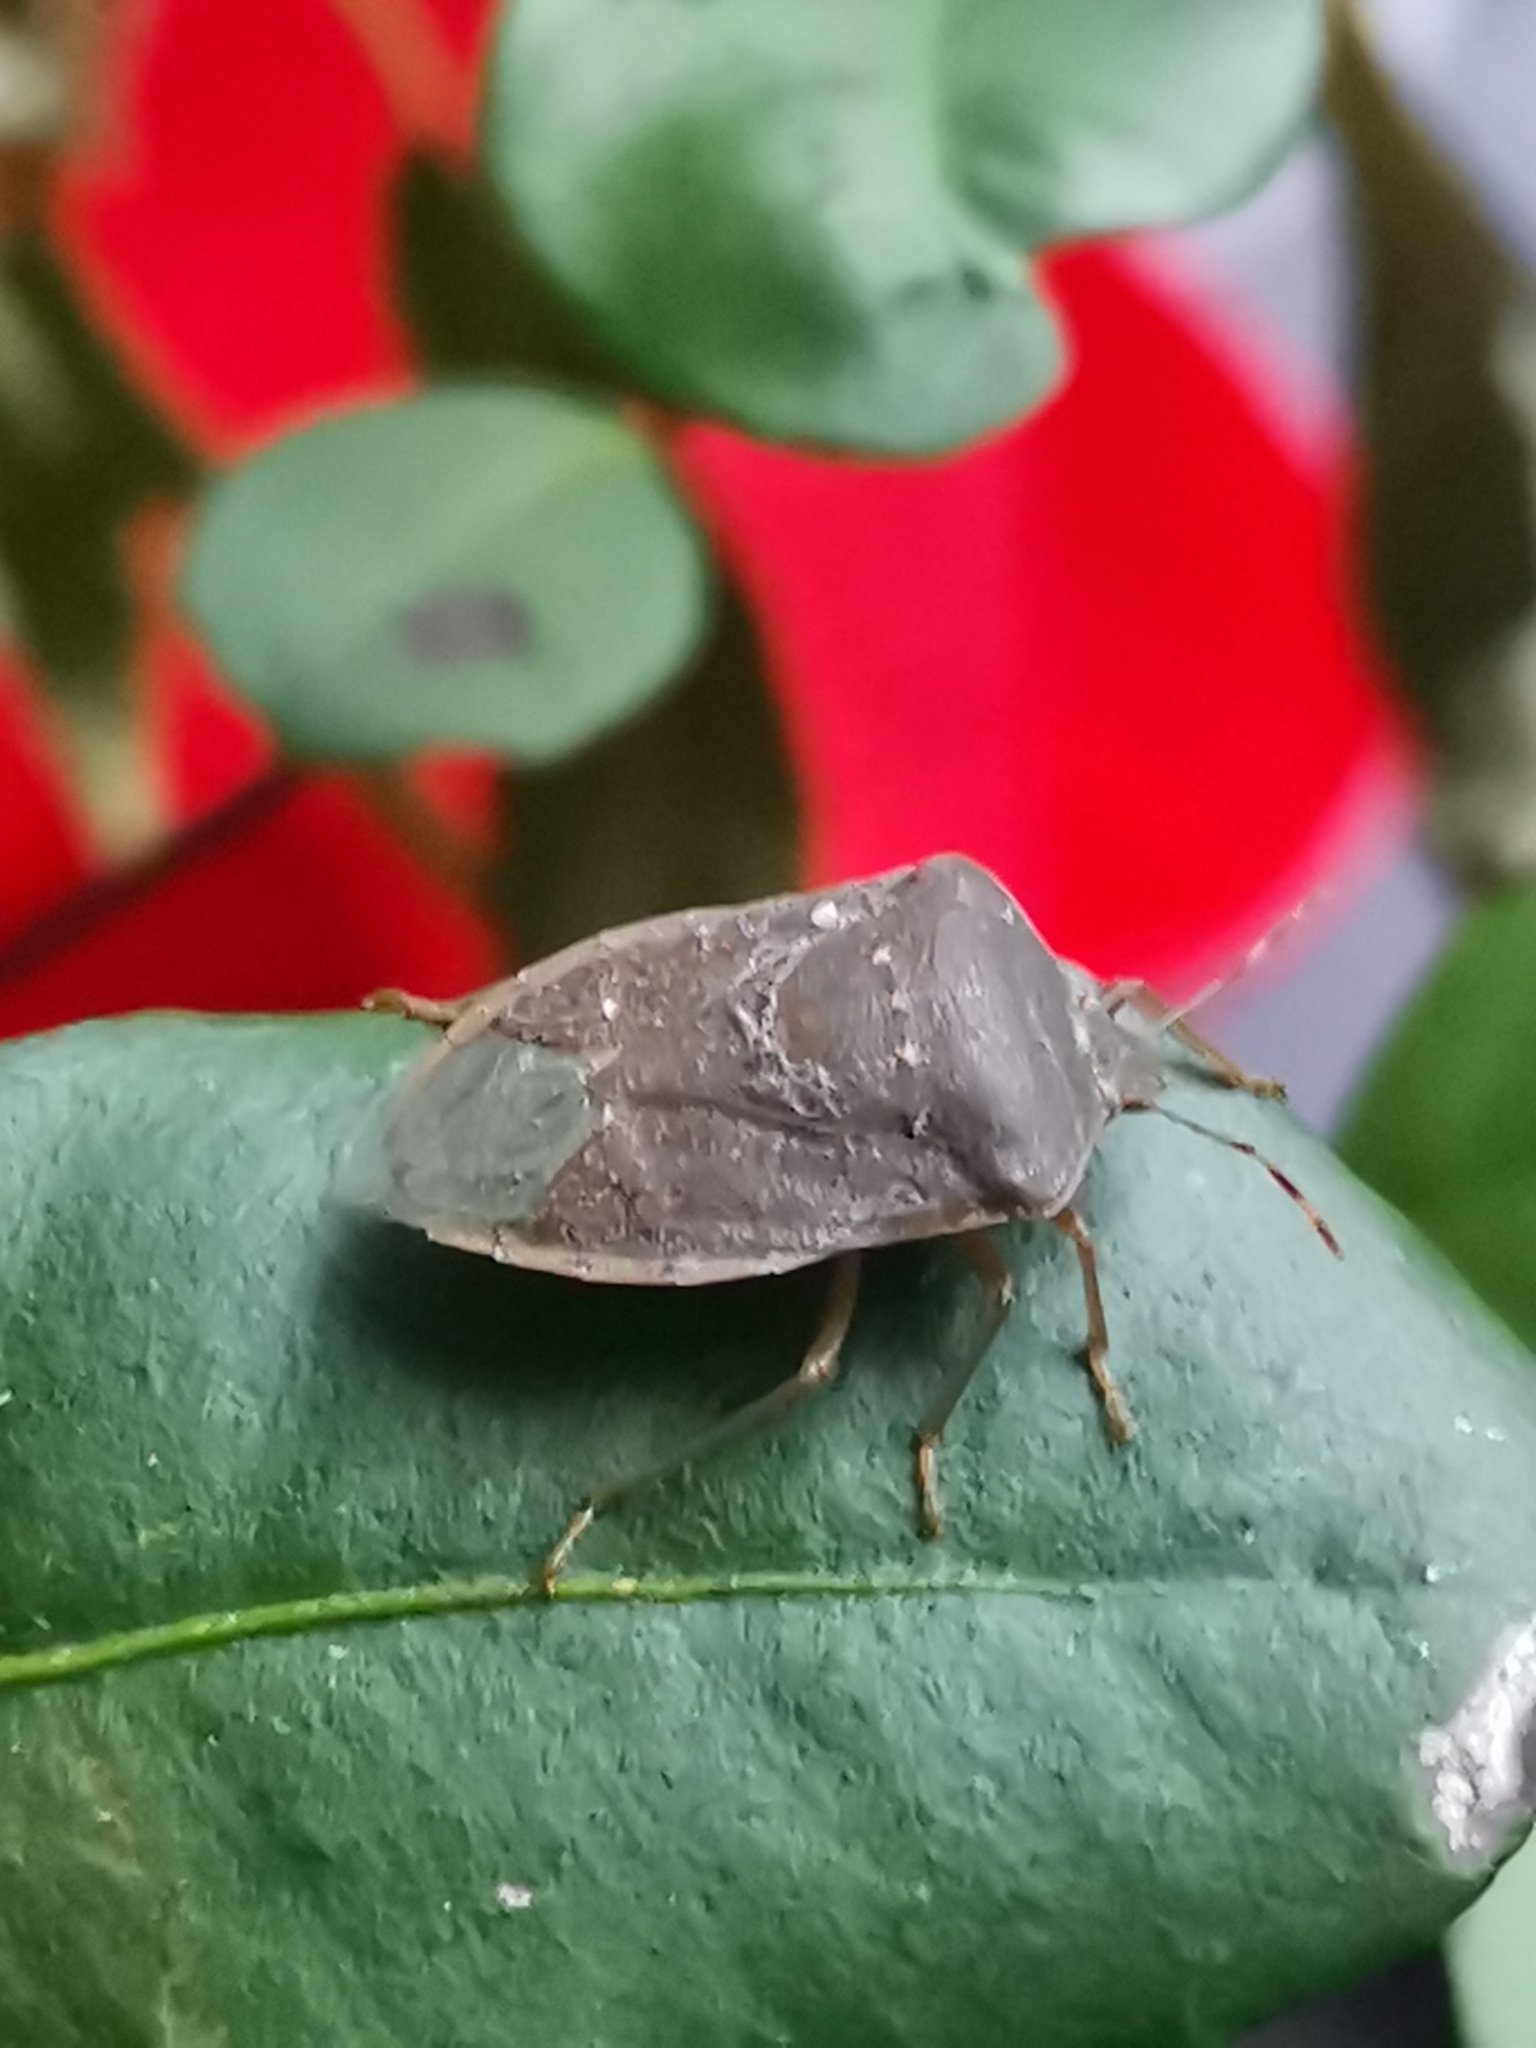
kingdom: Animalia
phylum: Arthropoda
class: Insecta
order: Hemiptera
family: Pentatomidae
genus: Nezara
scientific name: Nezara viridula
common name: Southern green stink bug
